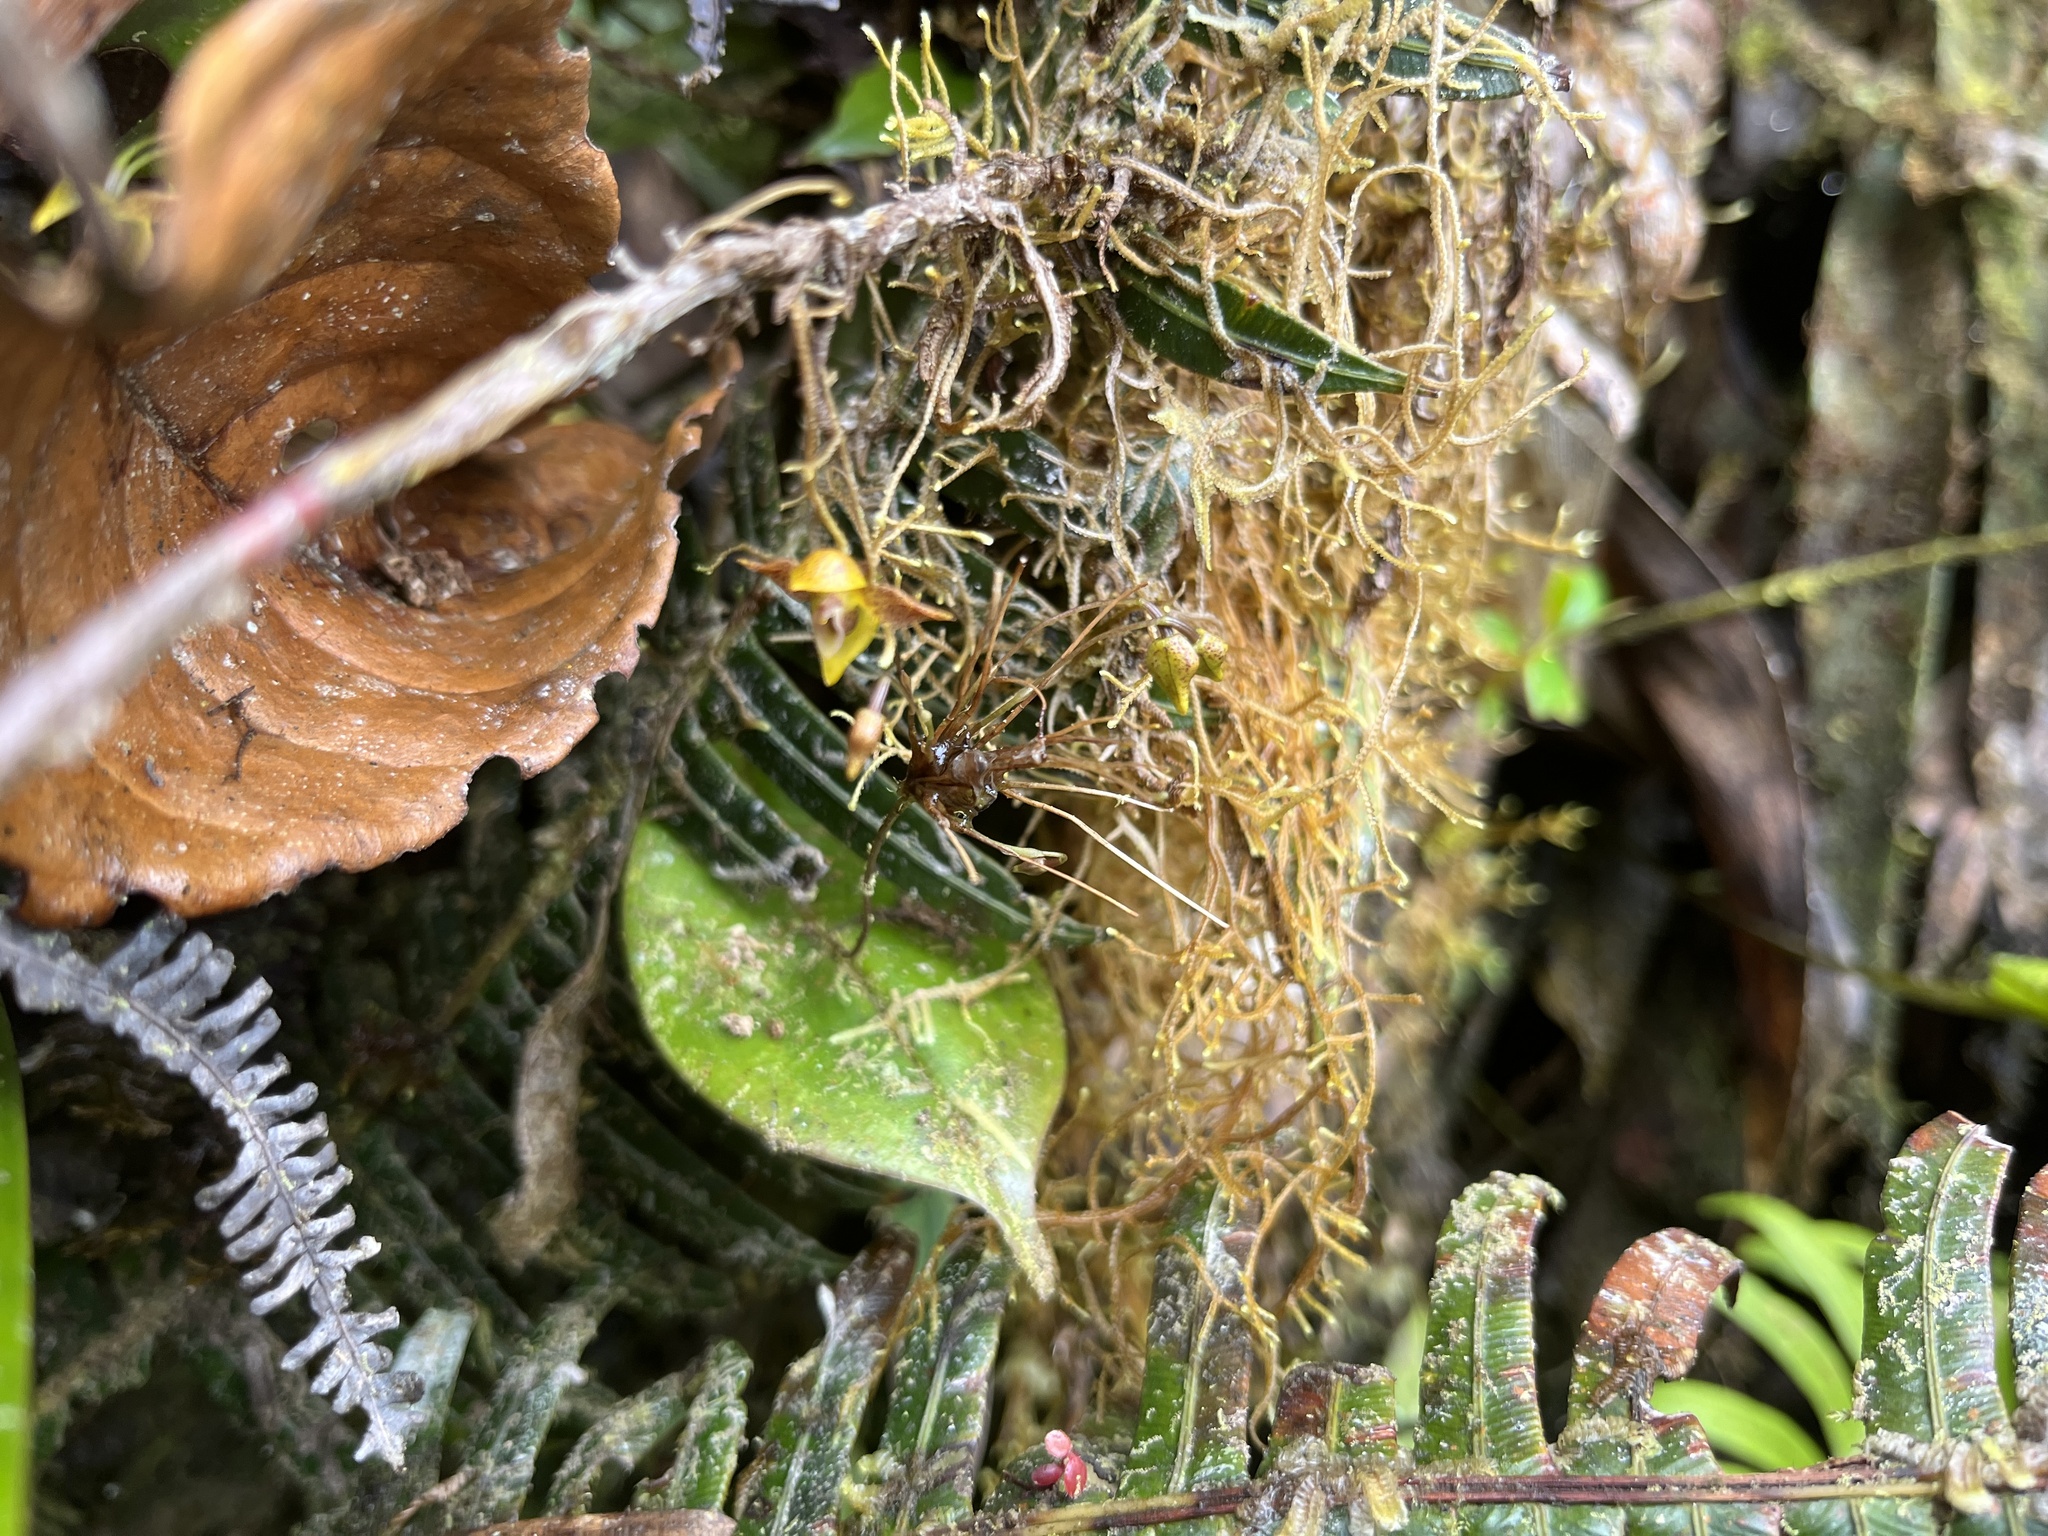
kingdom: Plantae
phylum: Tracheophyta
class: Liliopsida
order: Asparagales
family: Orchidaceae
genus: Pleurothallis
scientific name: Pleurothallis silverstonei
